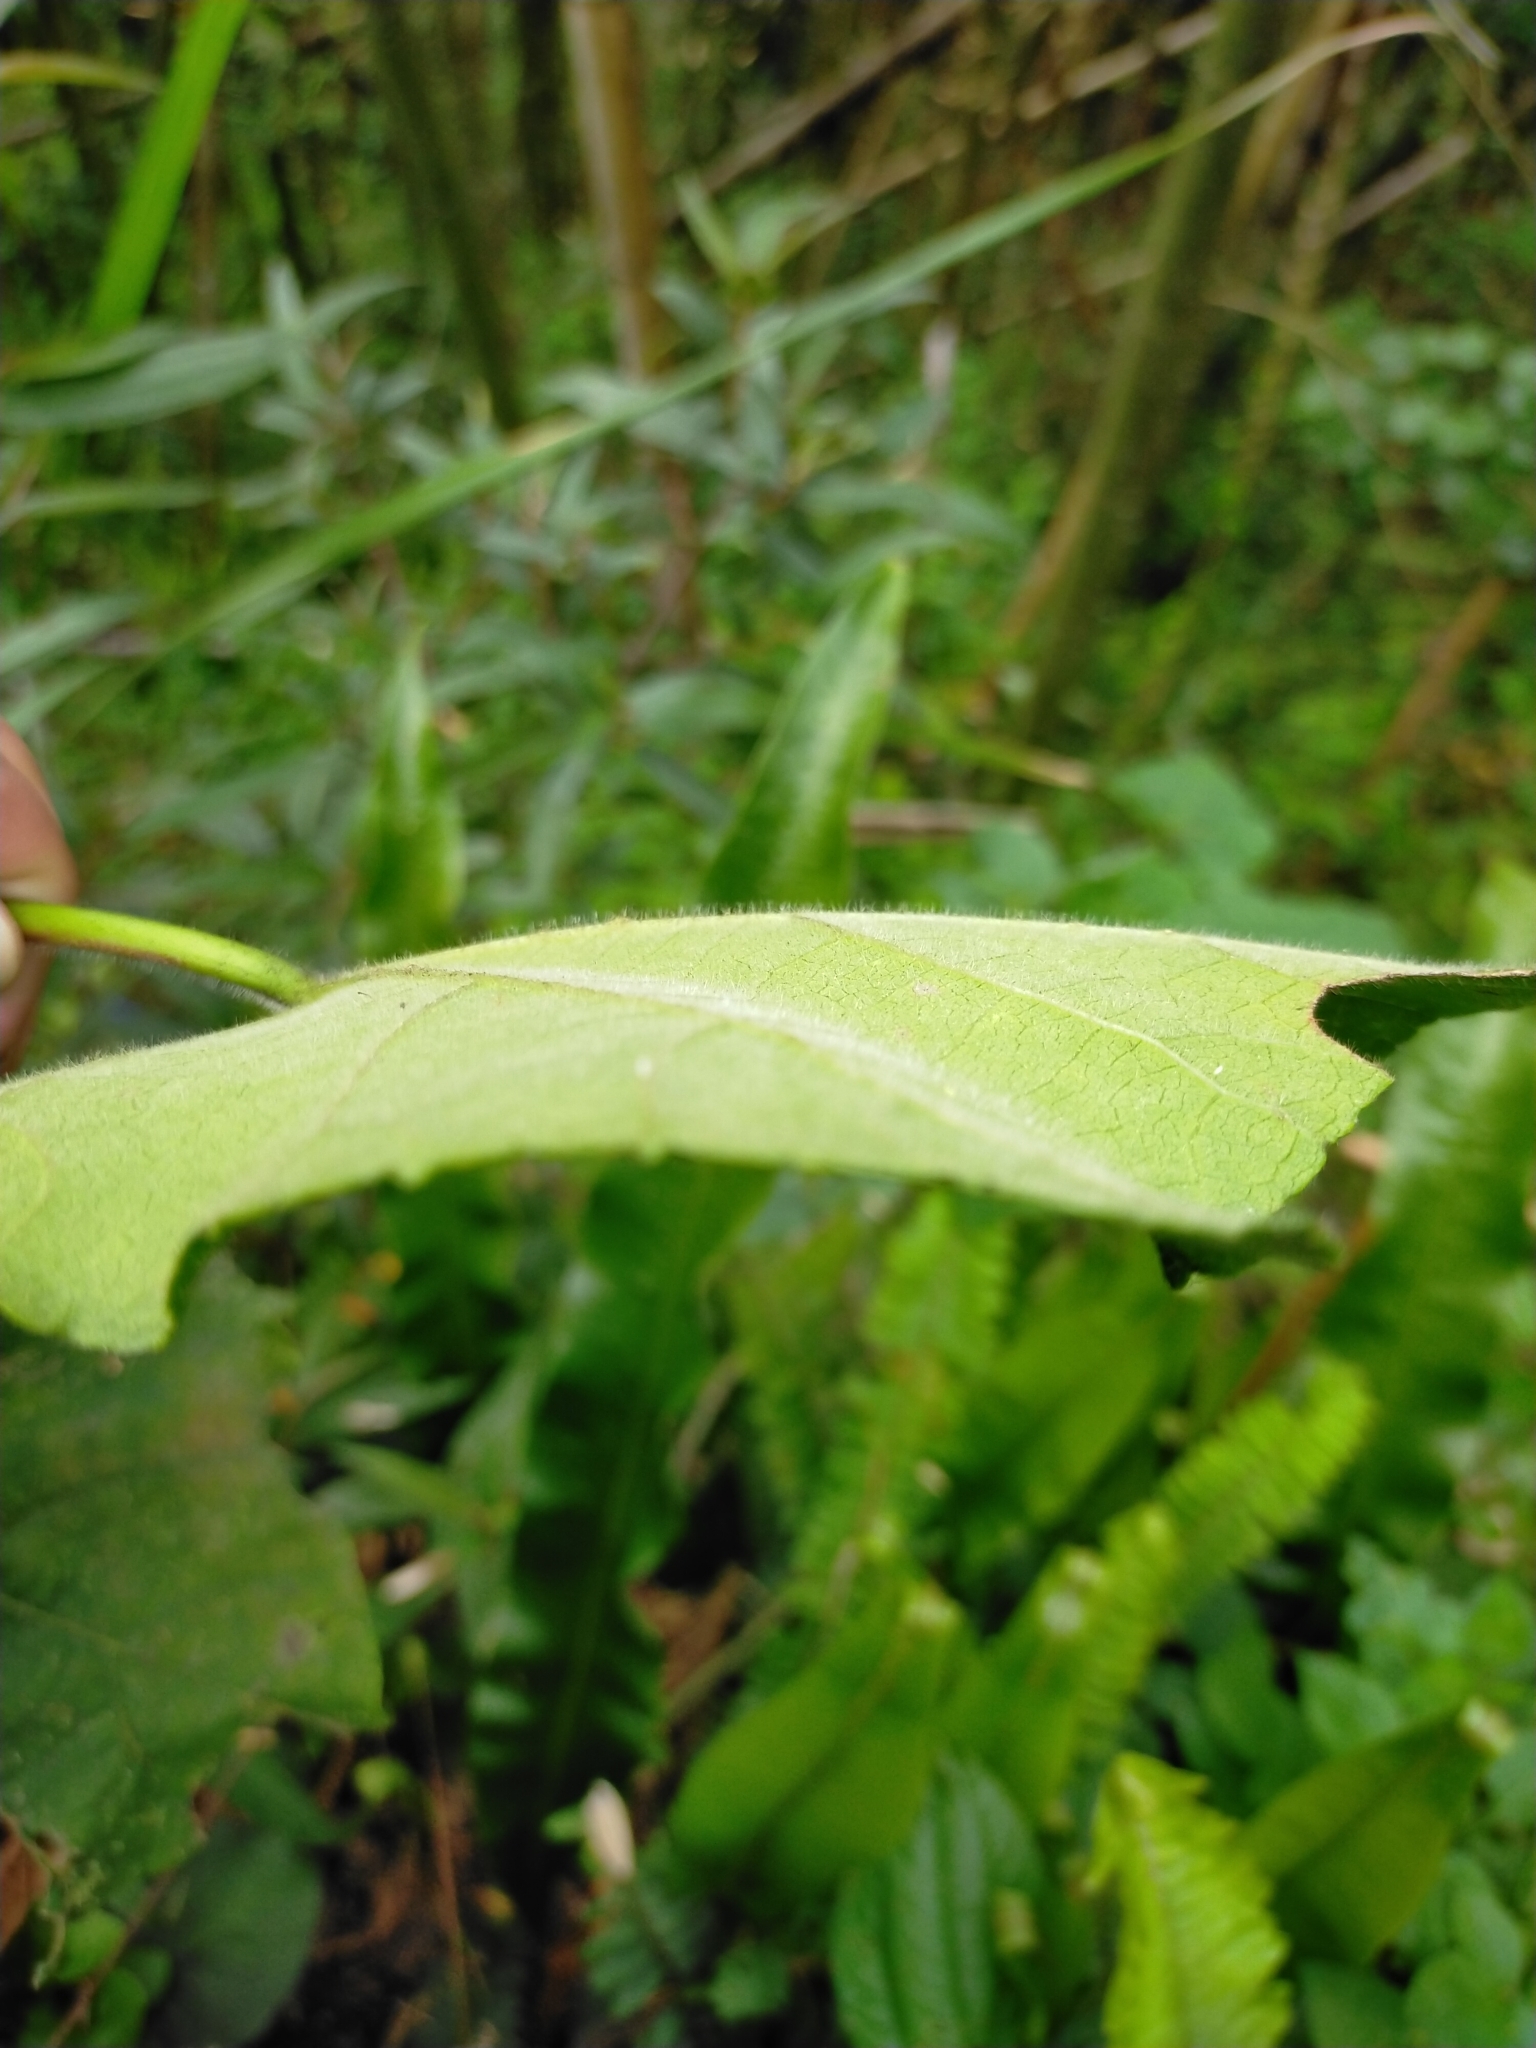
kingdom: Plantae
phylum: Tracheophyta
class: Magnoliopsida
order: Malvales
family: Malvaceae
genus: Hibiscus
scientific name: Hibiscus taiwanensis
